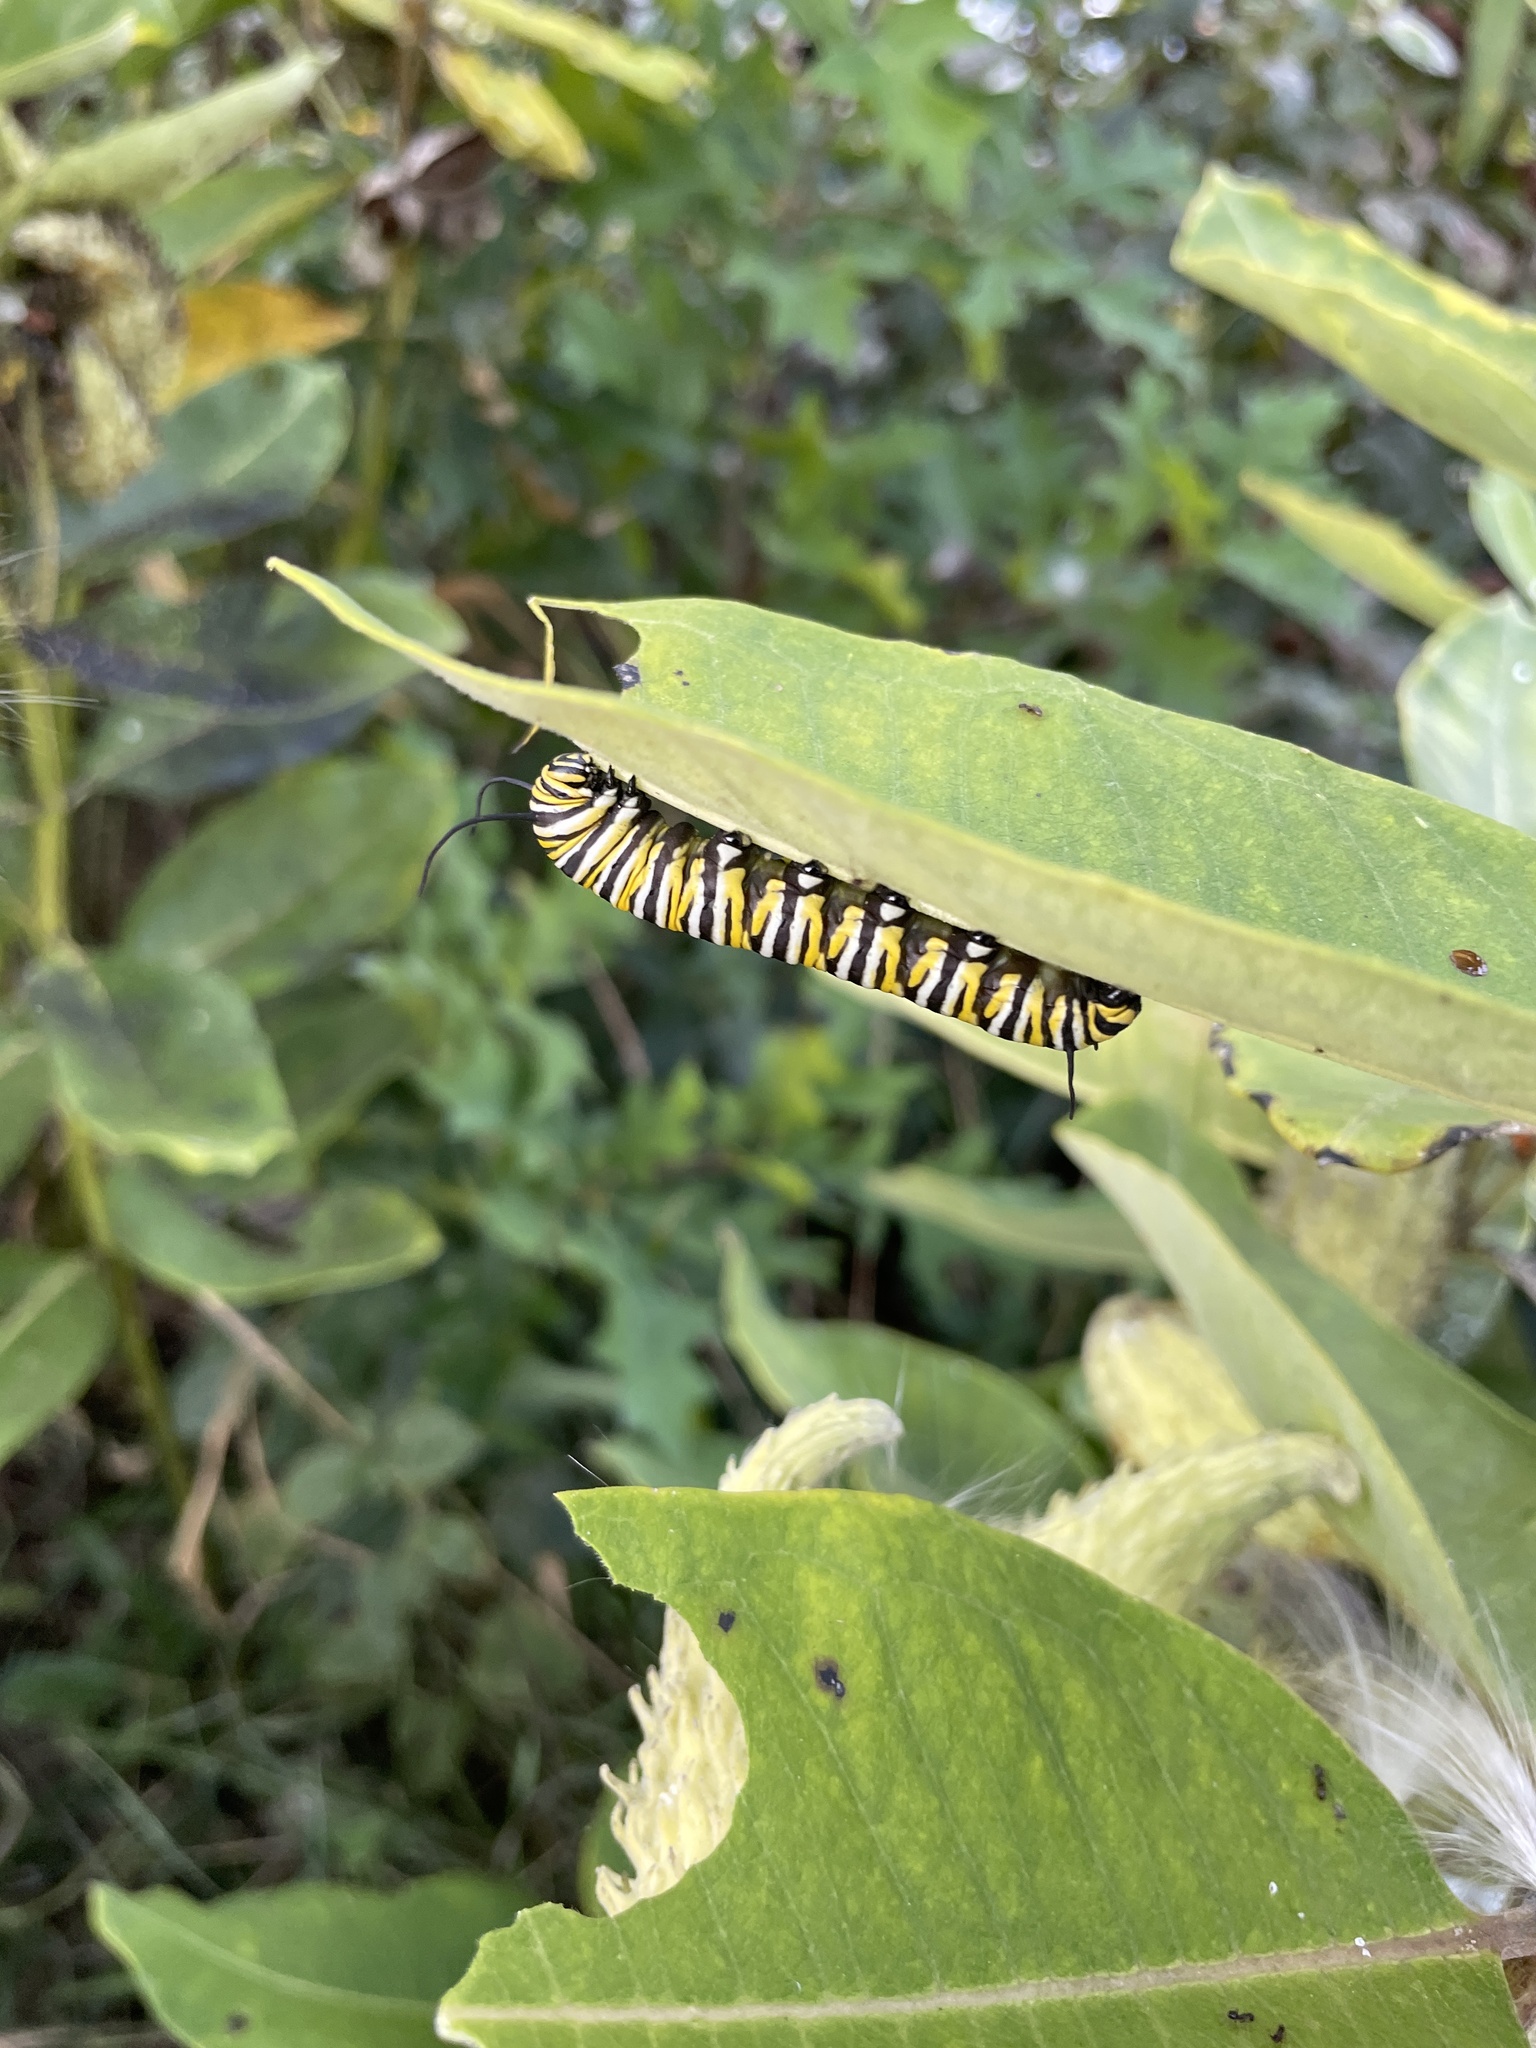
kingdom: Animalia
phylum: Arthropoda
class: Insecta
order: Lepidoptera
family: Nymphalidae
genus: Danaus
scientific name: Danaus plexippus
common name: Monarch
